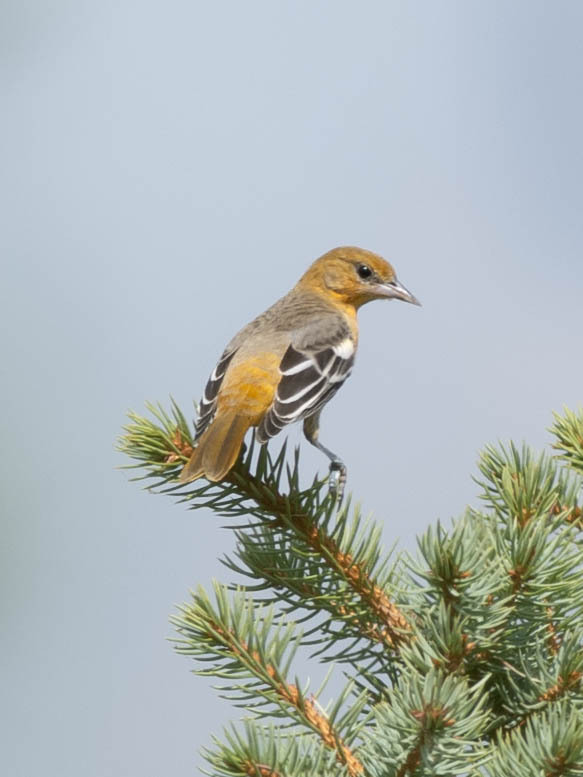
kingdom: Animalia
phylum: Chordata
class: Aves
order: Passeriformes
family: Icteridae
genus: Icterus
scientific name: Icterus galbula
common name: Baltimore oriole
